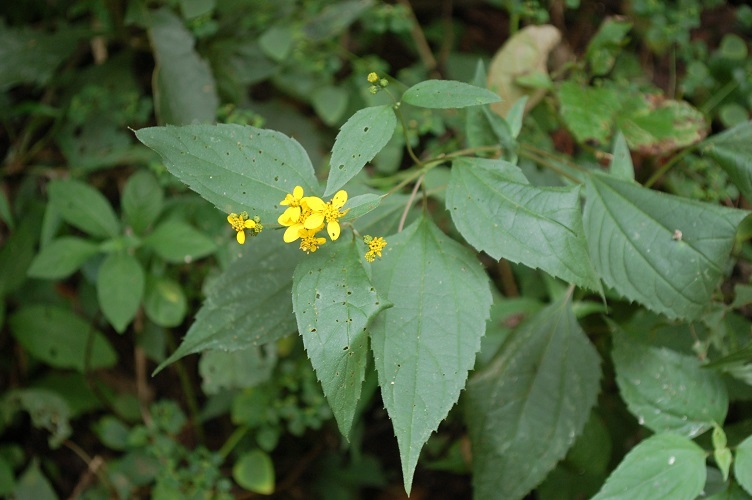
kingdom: Plantae
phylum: Tracheophyta
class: Magnoliopsida
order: Asterales
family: Asteraceae
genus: Hymenostephium
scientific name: Hymenostephium cordatum
